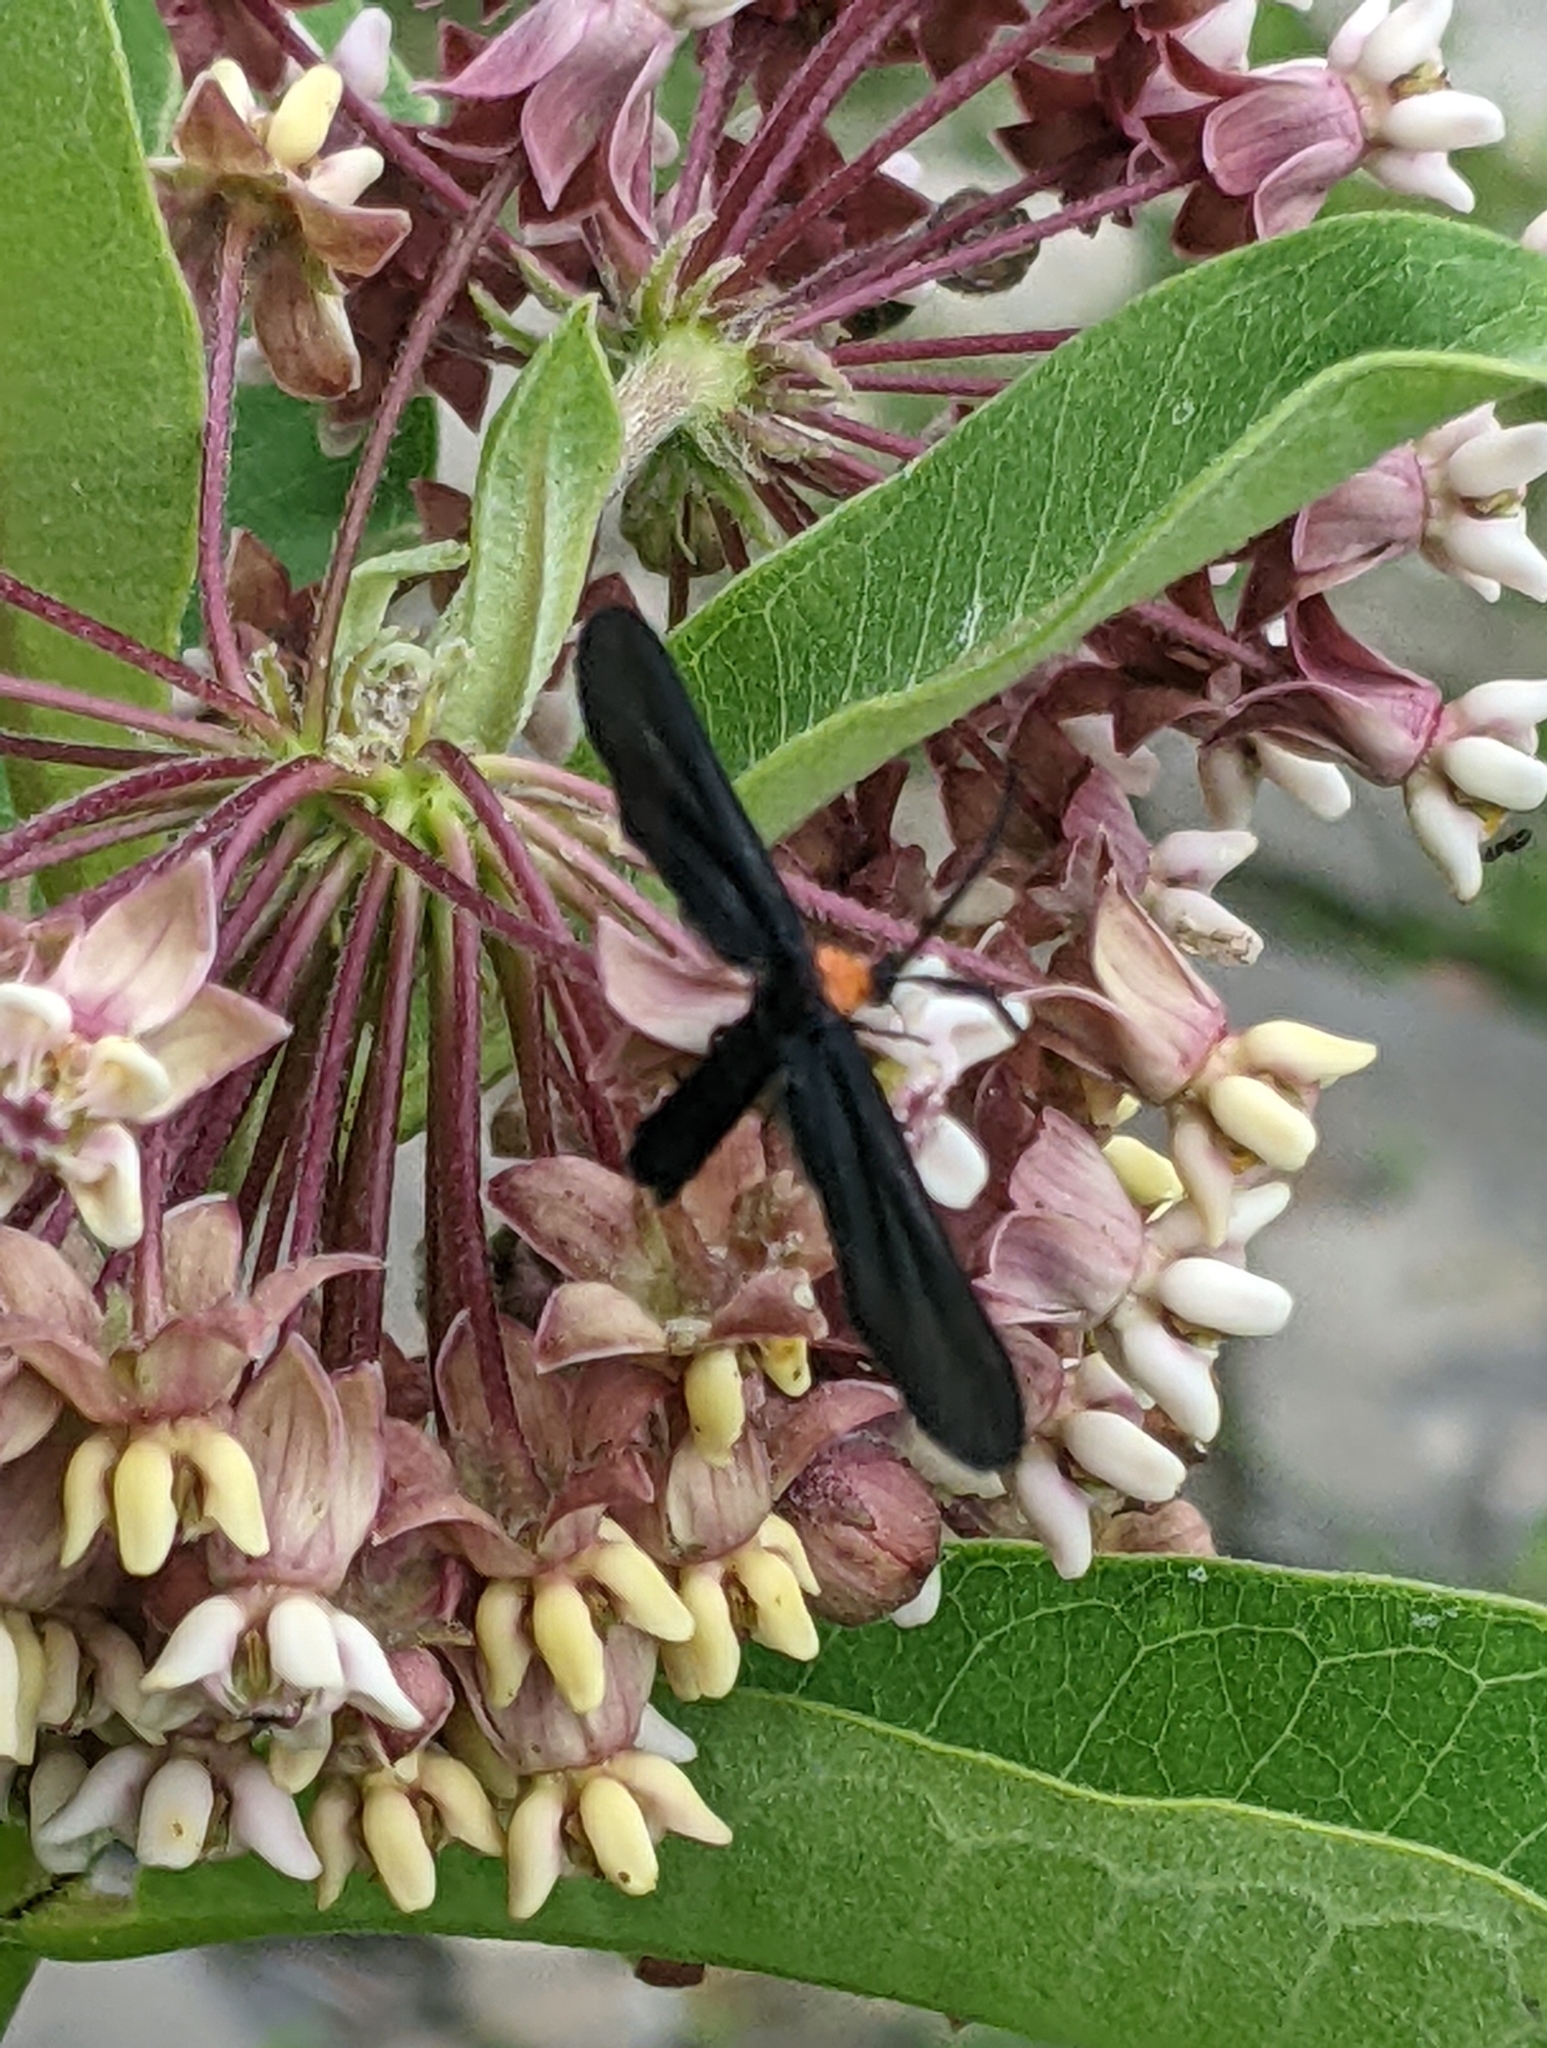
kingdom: Animalia
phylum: Arthropoda
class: Insecta
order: Lepidoptera
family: Zygaenidae
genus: Harrisina
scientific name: Harrisina americana
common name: Grapeleaf skeletonizer moth
